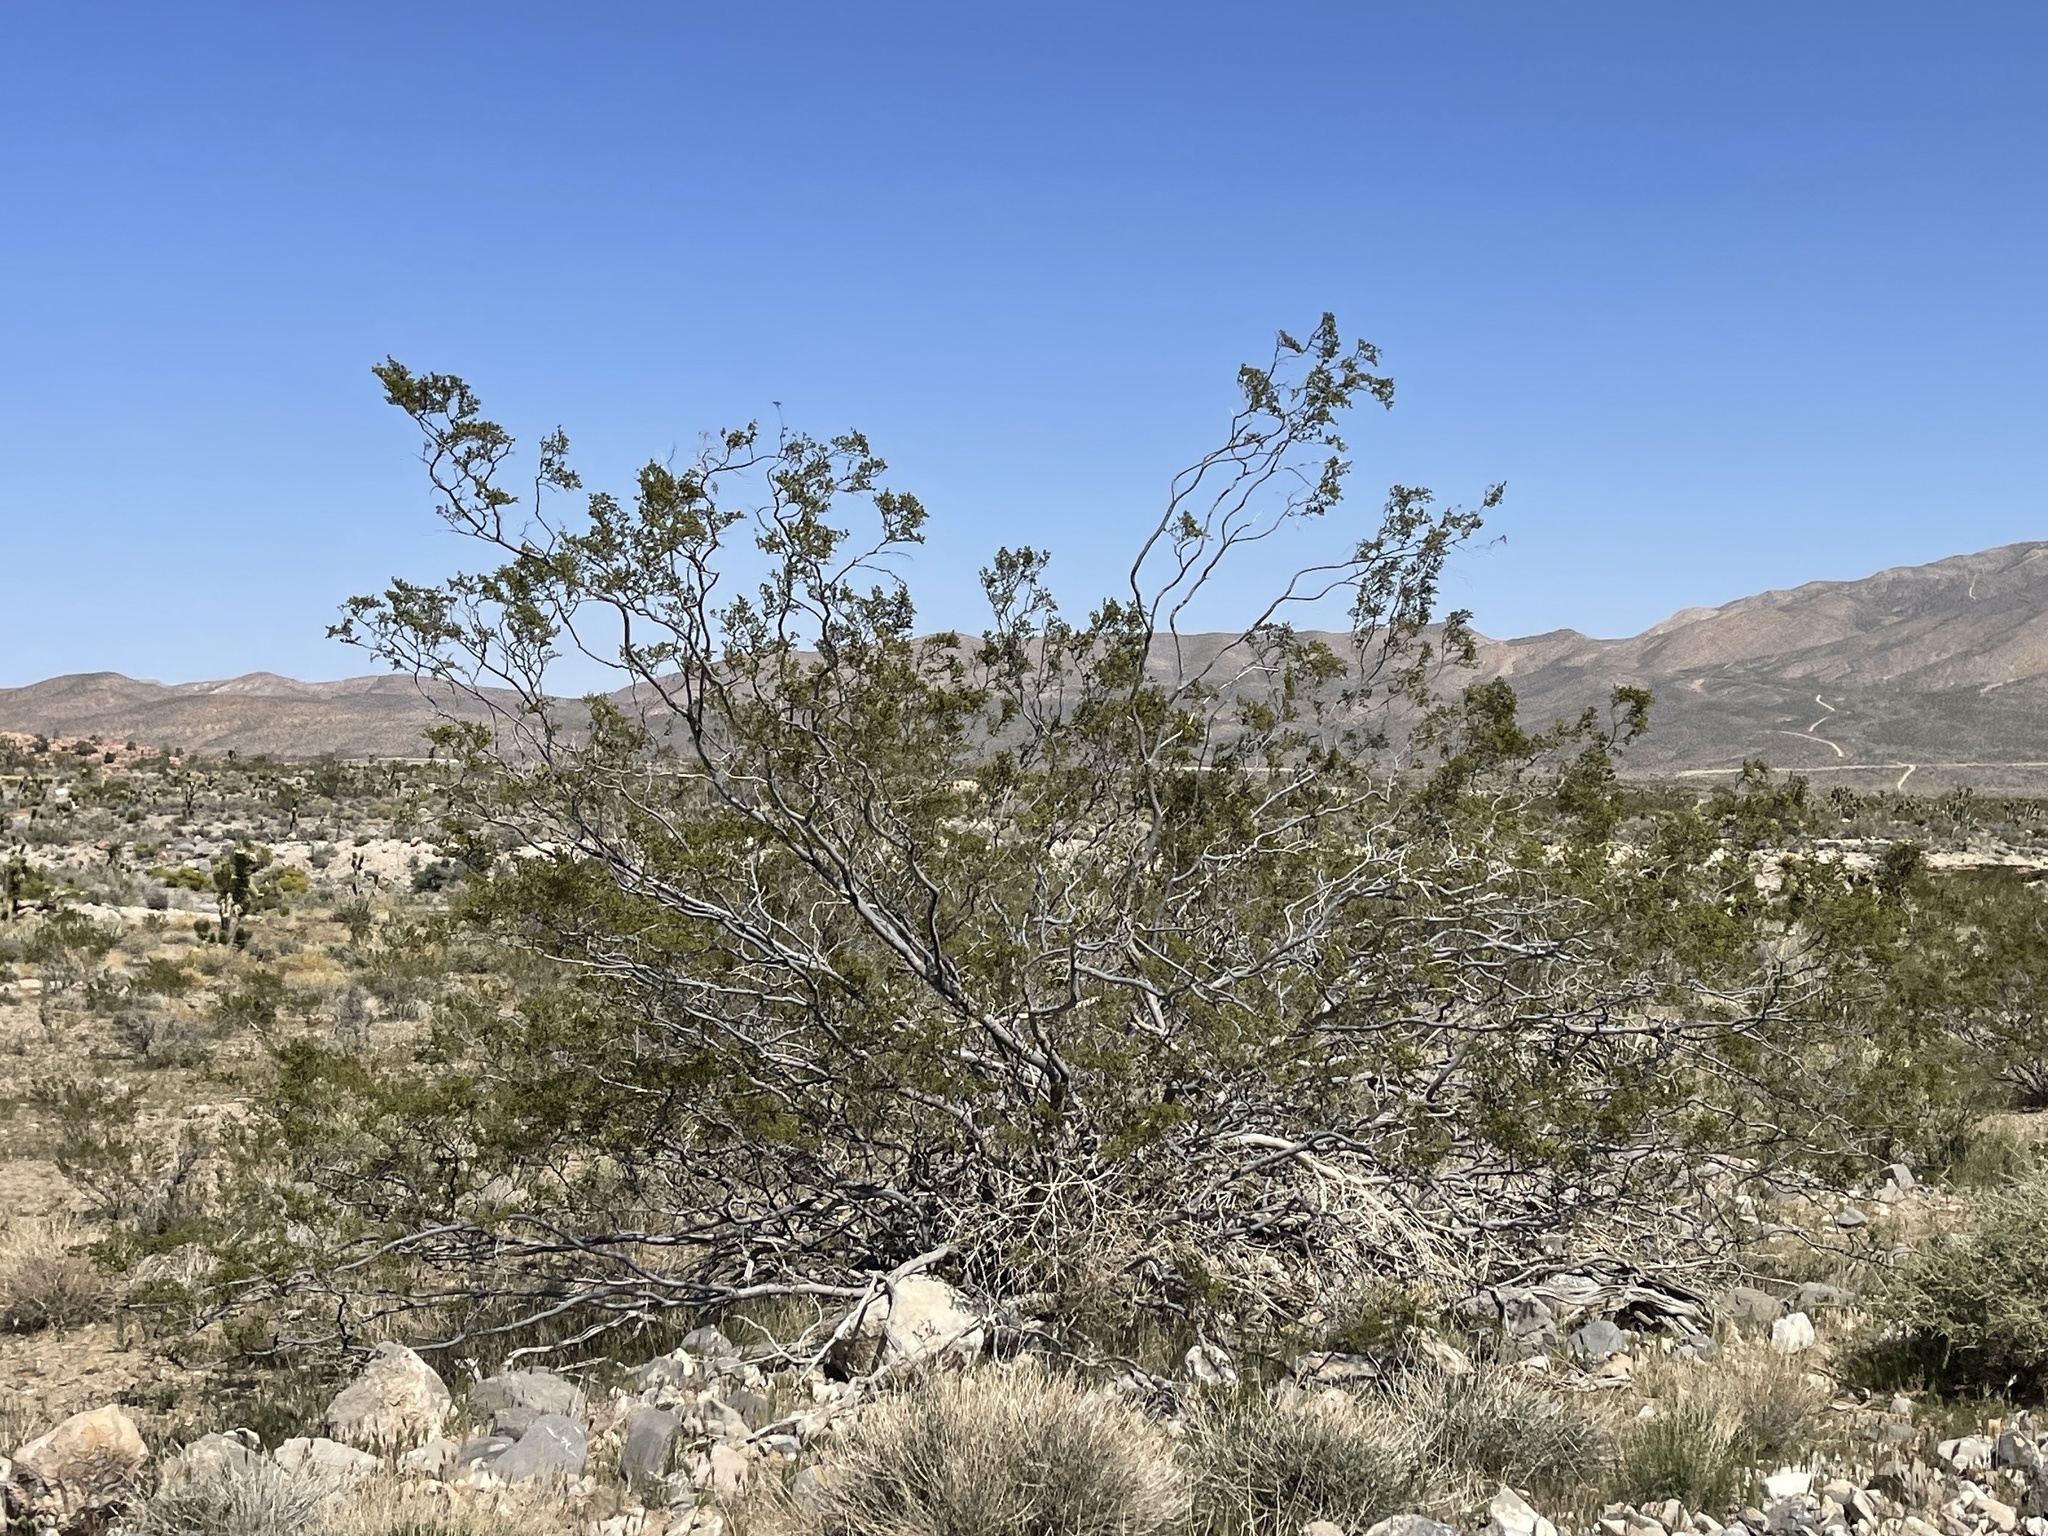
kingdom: Plantae
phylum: Tracheophyta
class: Magnoliopsida
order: Zygophyllales
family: Zygophyllaceae
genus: Larrea
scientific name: Larrea tridentata
